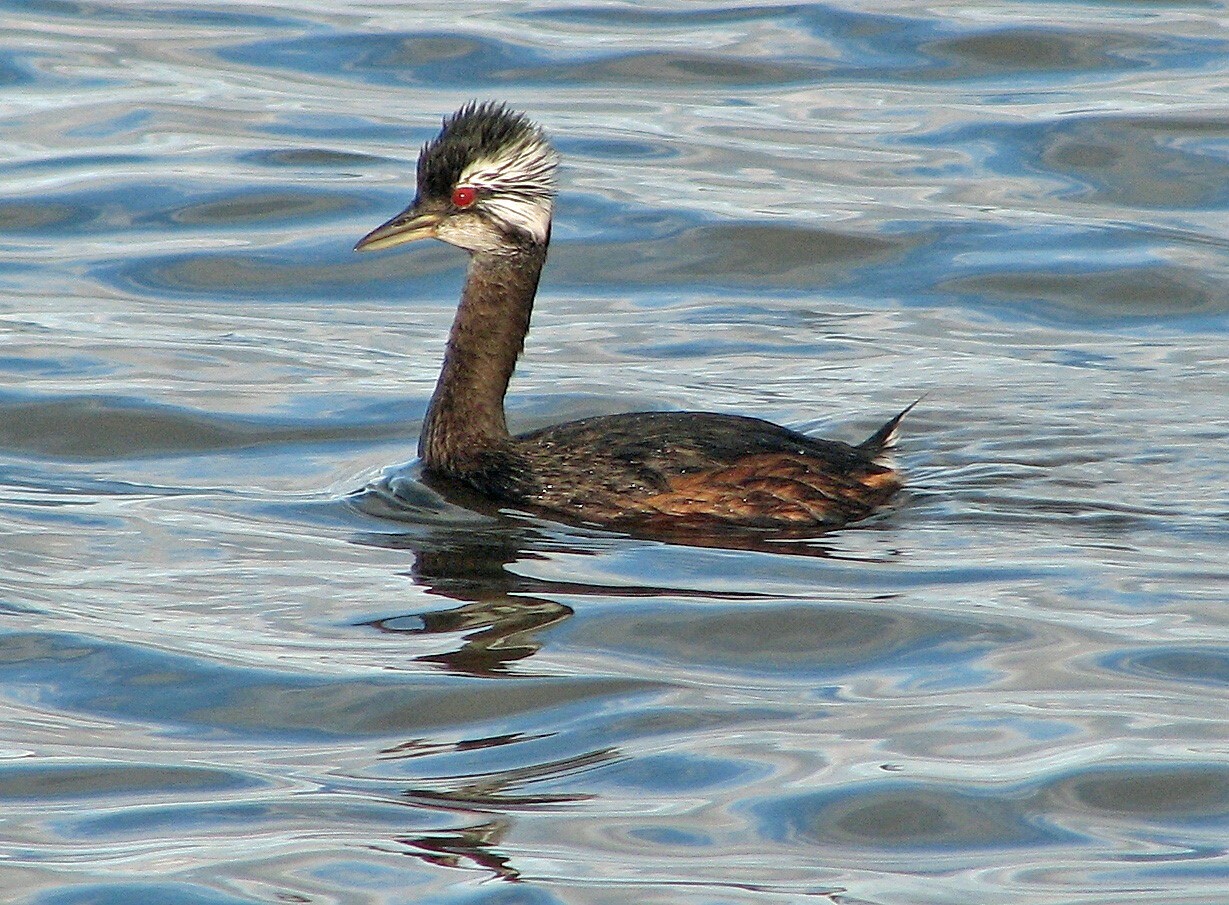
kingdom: Animalia
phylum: Chordata
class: Aves
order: Podicipediformes
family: Podicipedidae
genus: Rollandia
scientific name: Rollandia rolland
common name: White-tufted grebe
